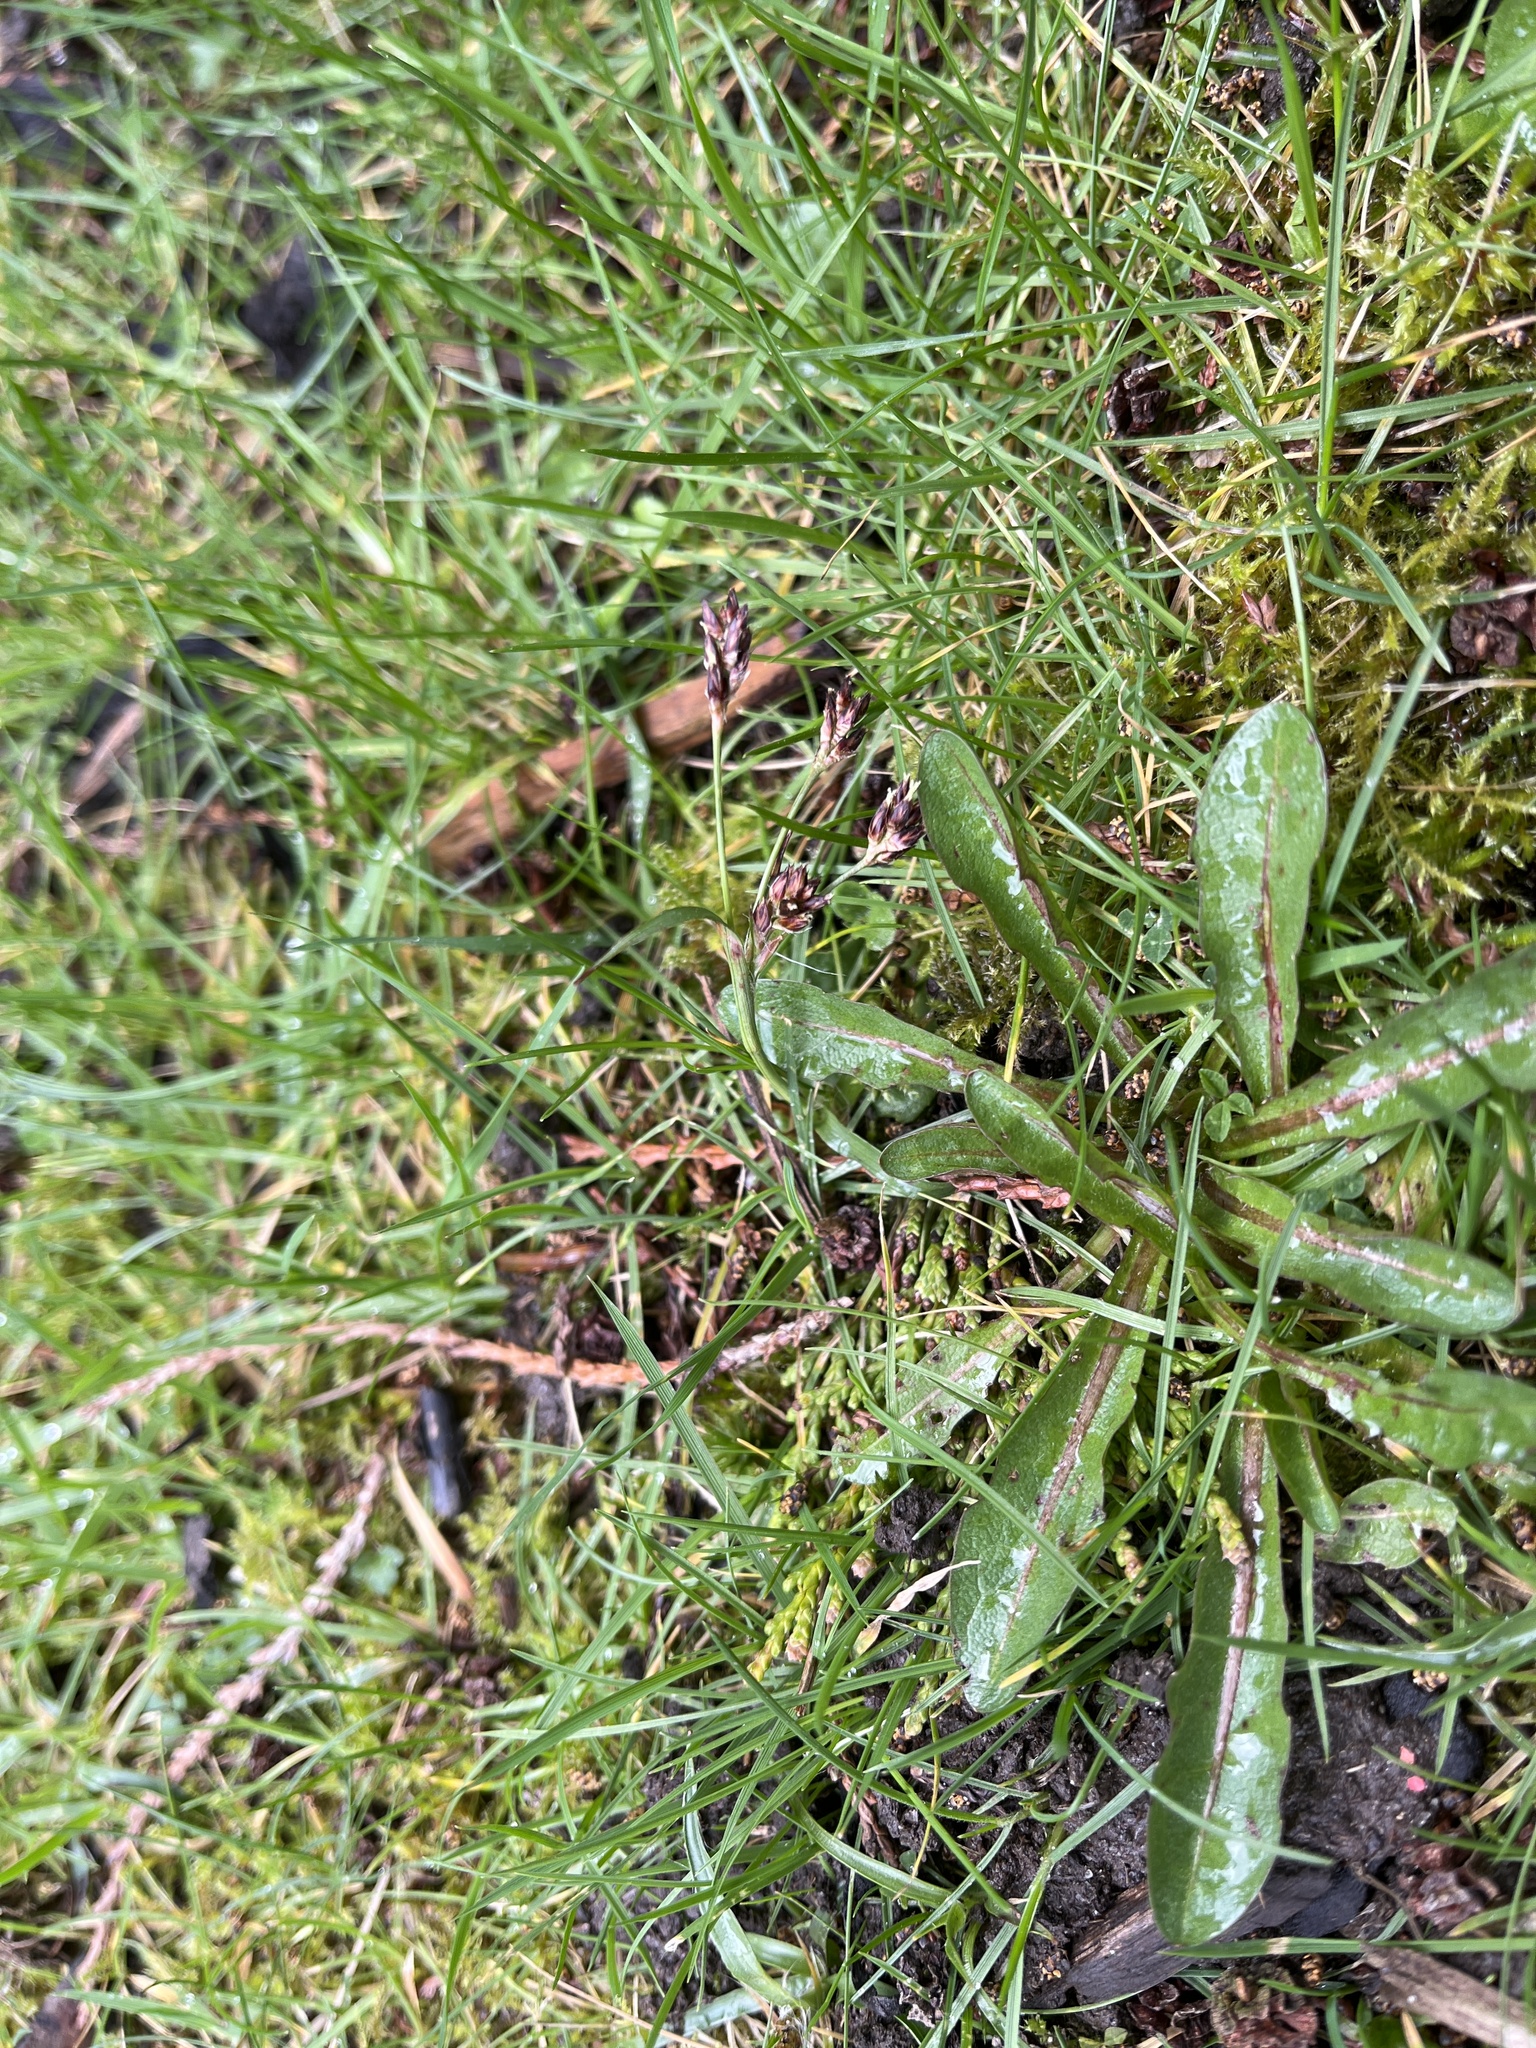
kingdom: Plantae
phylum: Tracheophyta
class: Liliopsida
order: Poales
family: Juncaceae
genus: Luzula
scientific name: Luzula campestris
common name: Field wood-rush
